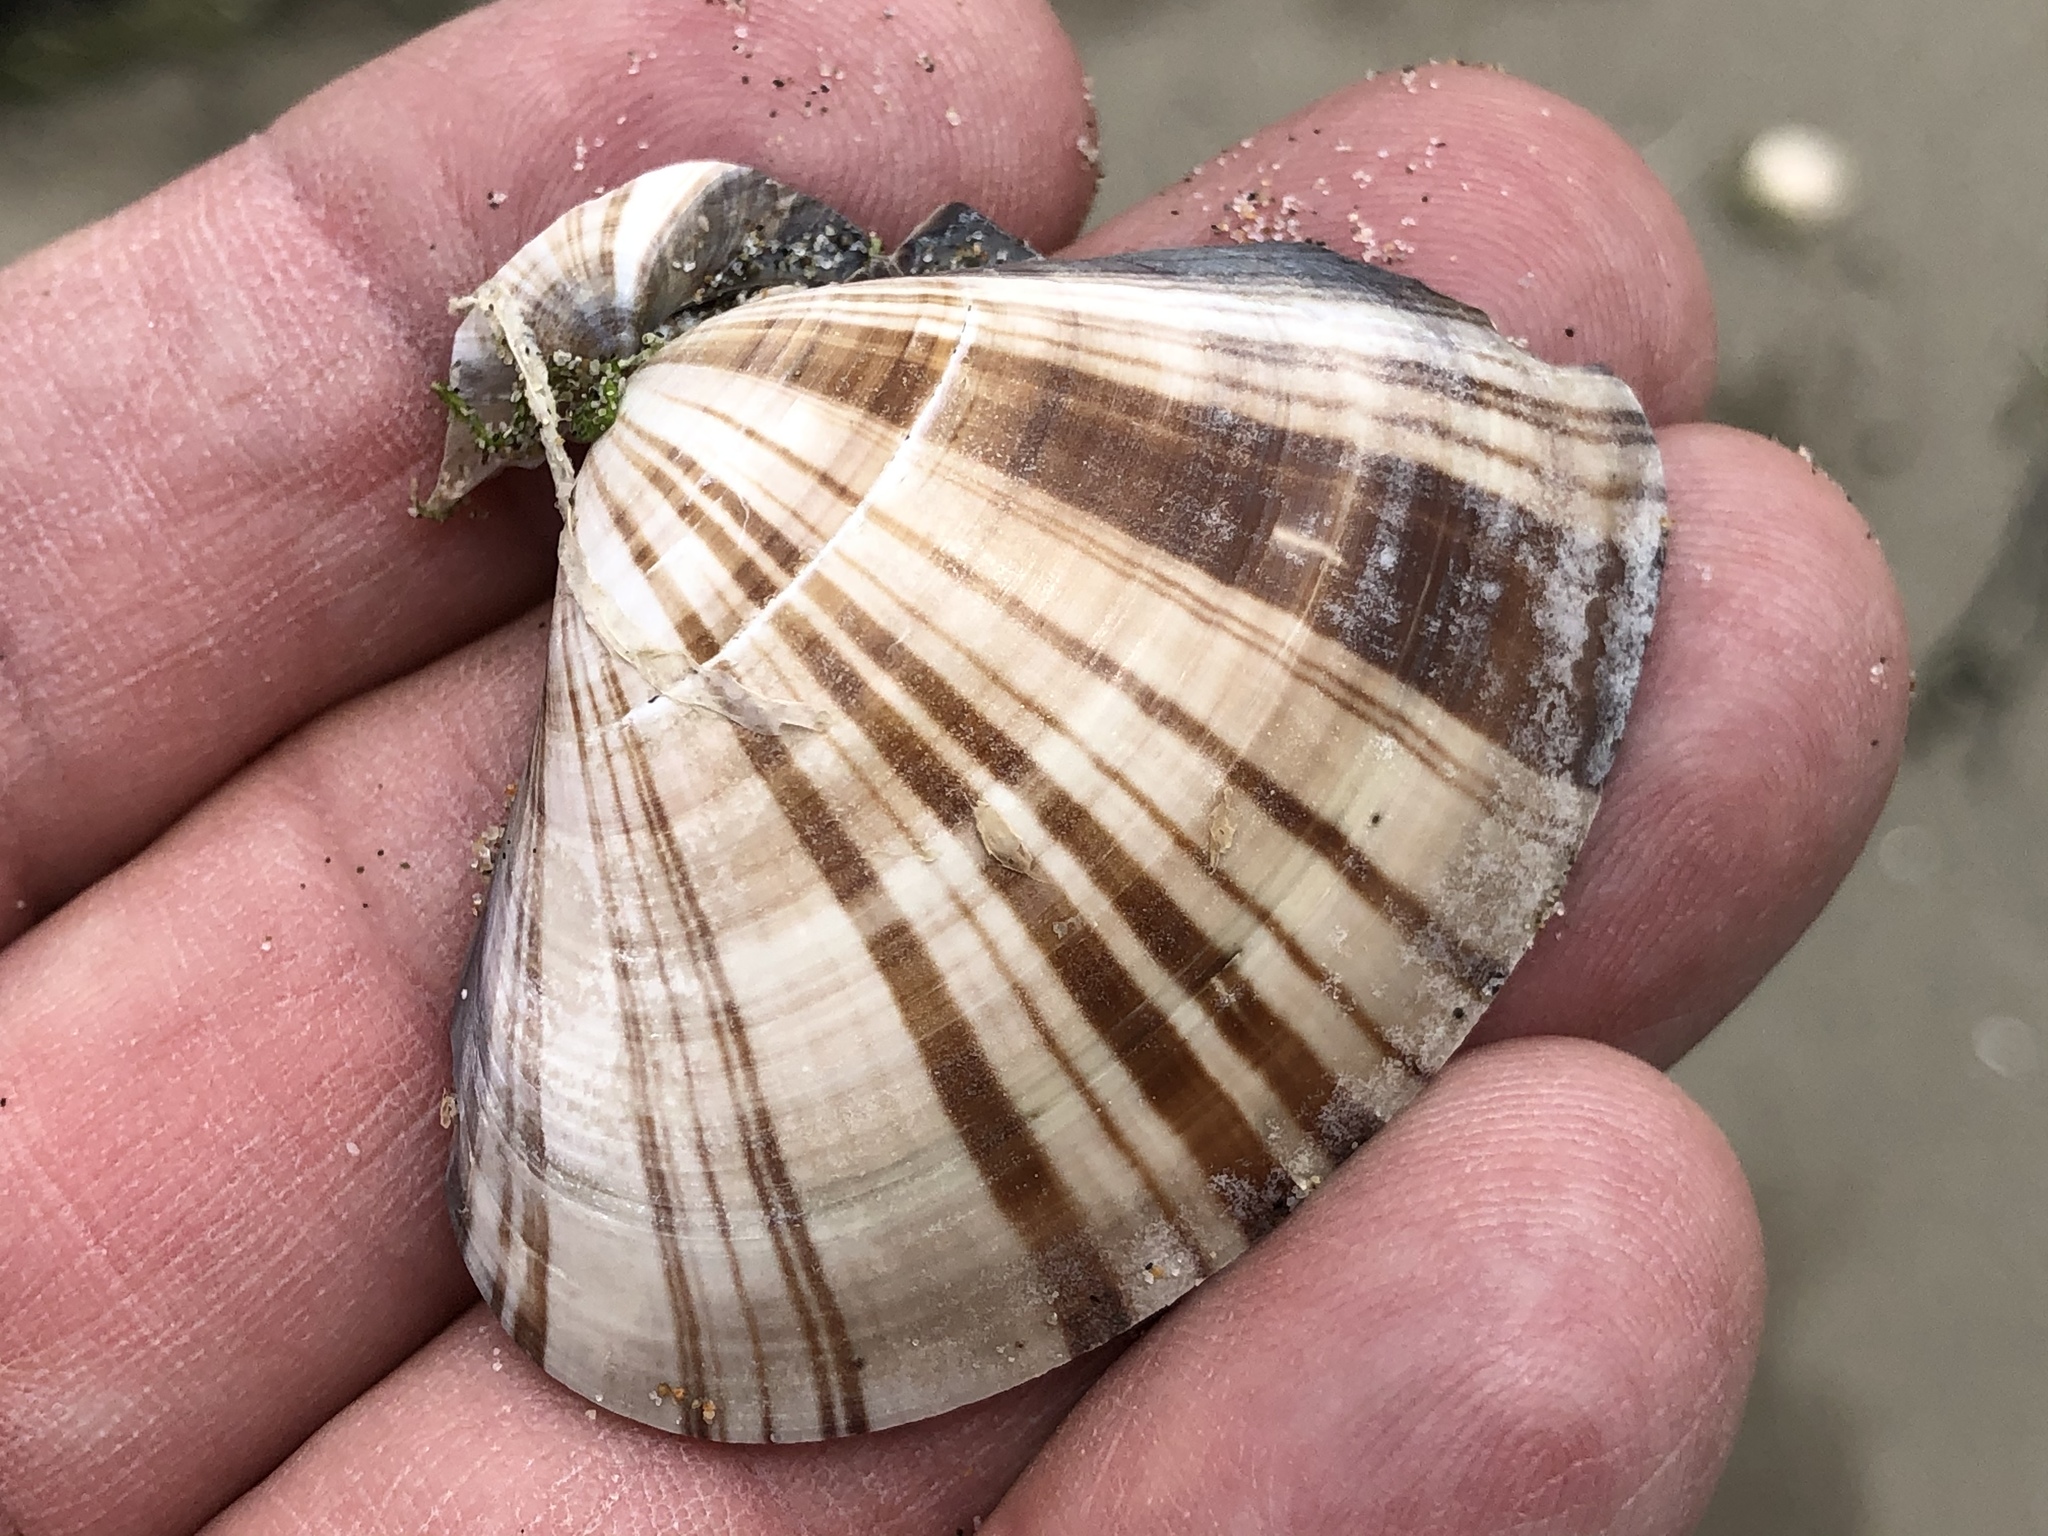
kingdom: Animalia
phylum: Mollusca
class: Bivalvia
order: Venerida
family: Veneridae
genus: Tivela
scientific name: Tivela stultorum
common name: Pismo clam
